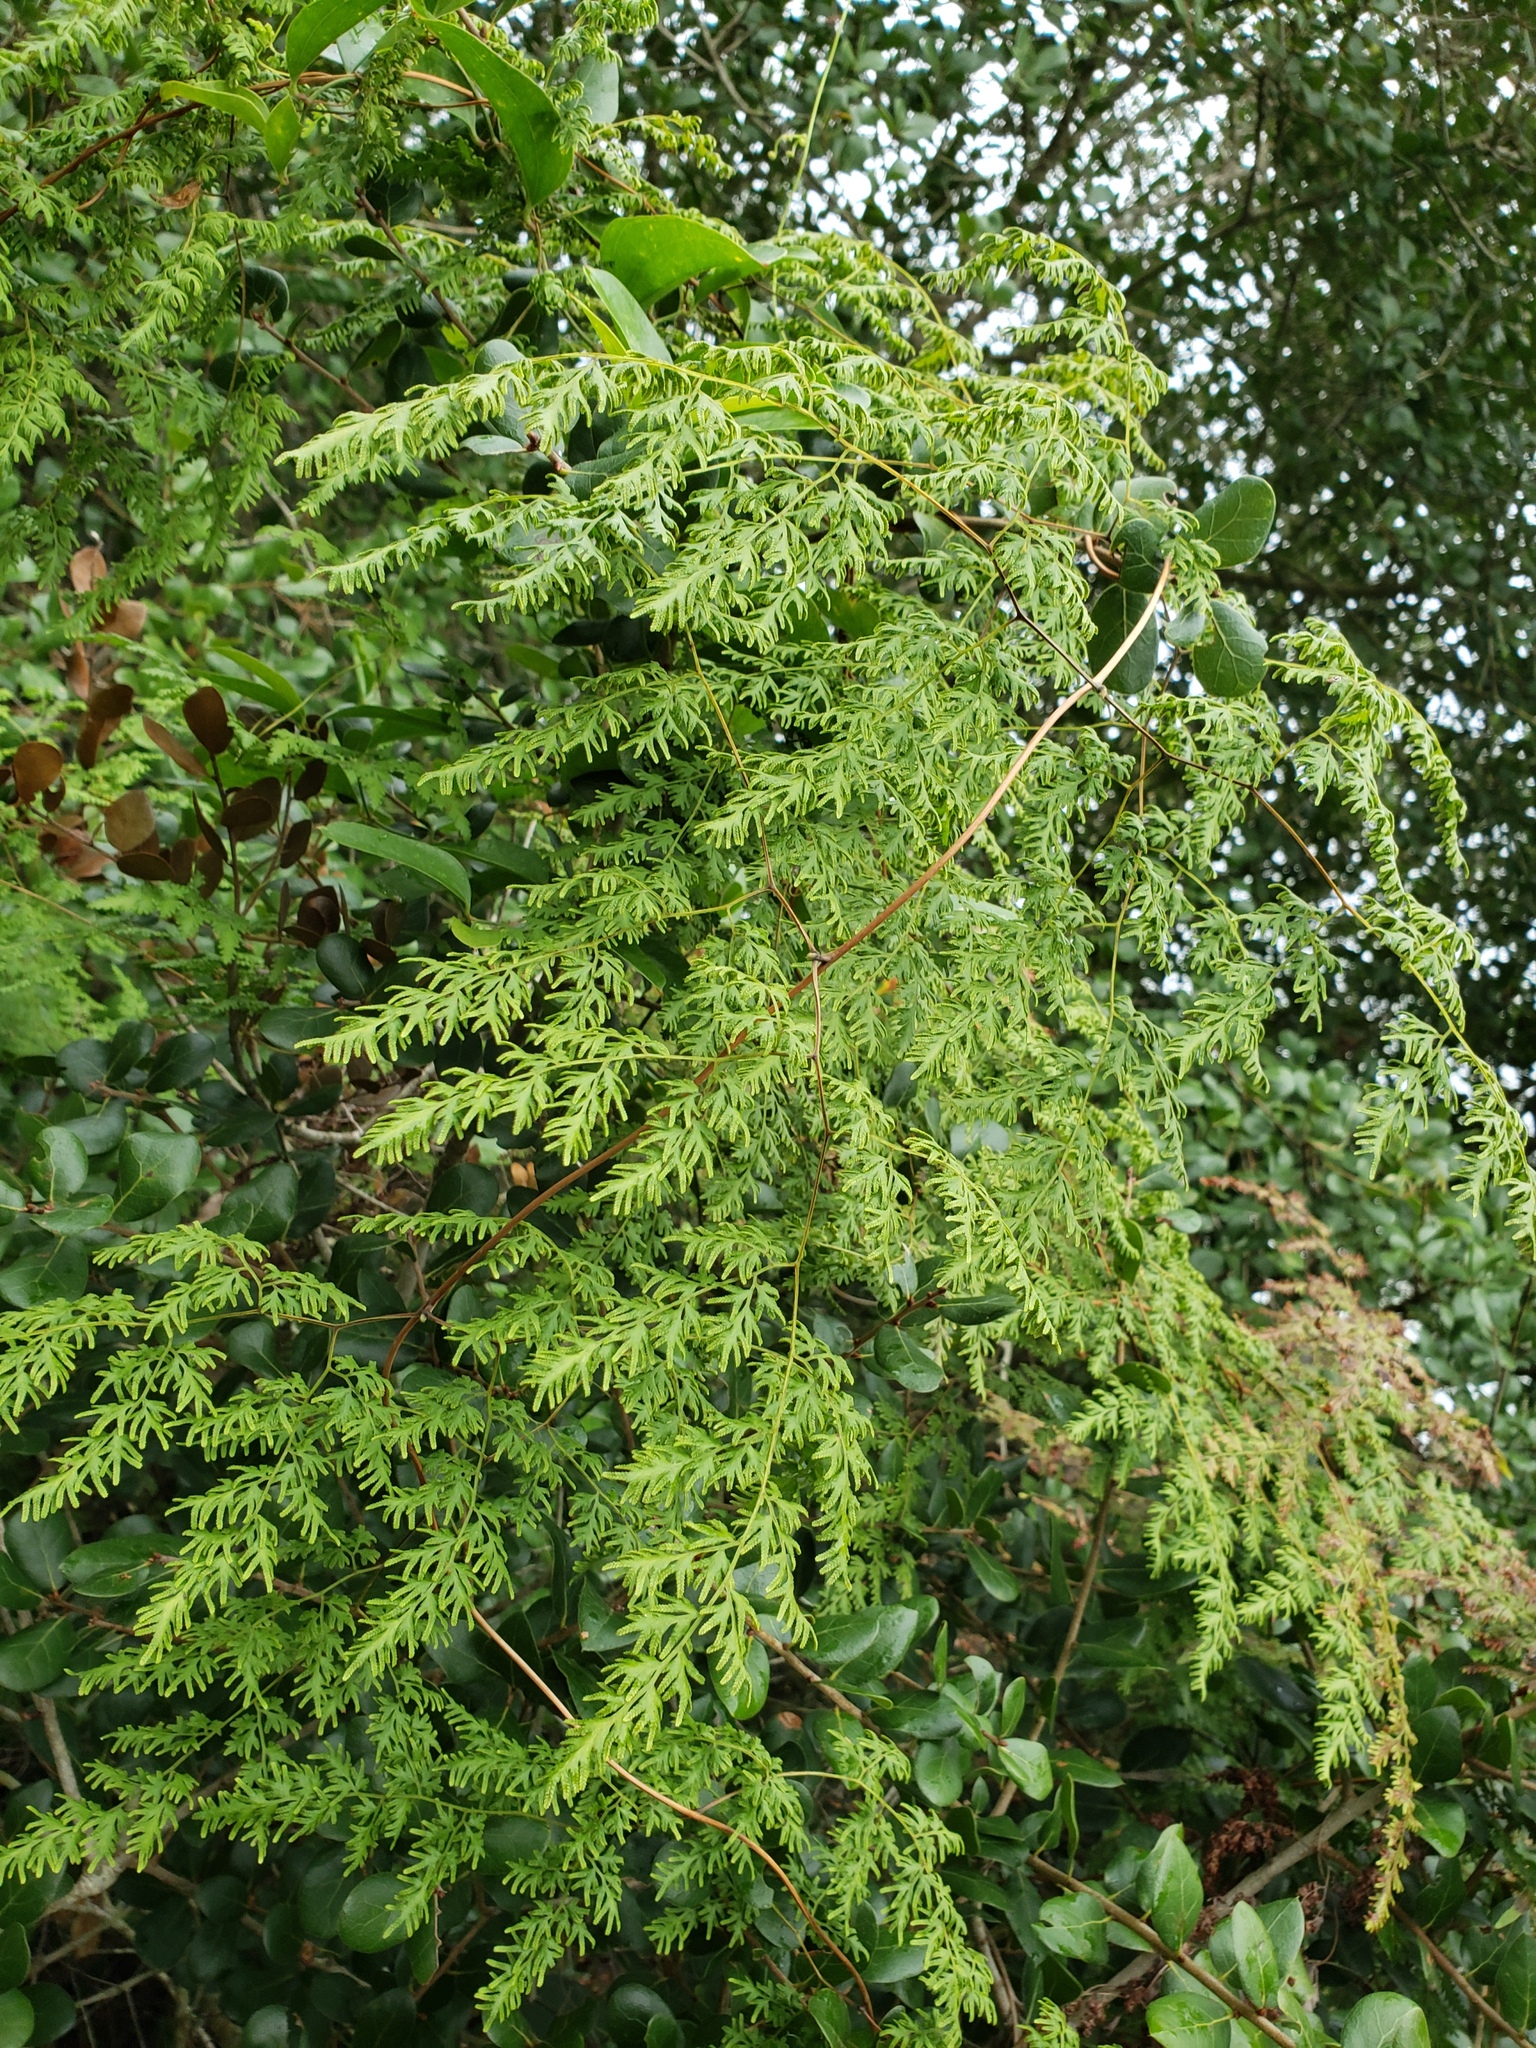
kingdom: Plantae
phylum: Tracheophyta
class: Polypodiopsida
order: Schizaeales
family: Lygodiaceae
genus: Lygodium
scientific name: Lygodium japonicum
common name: Japanese climbing fern
